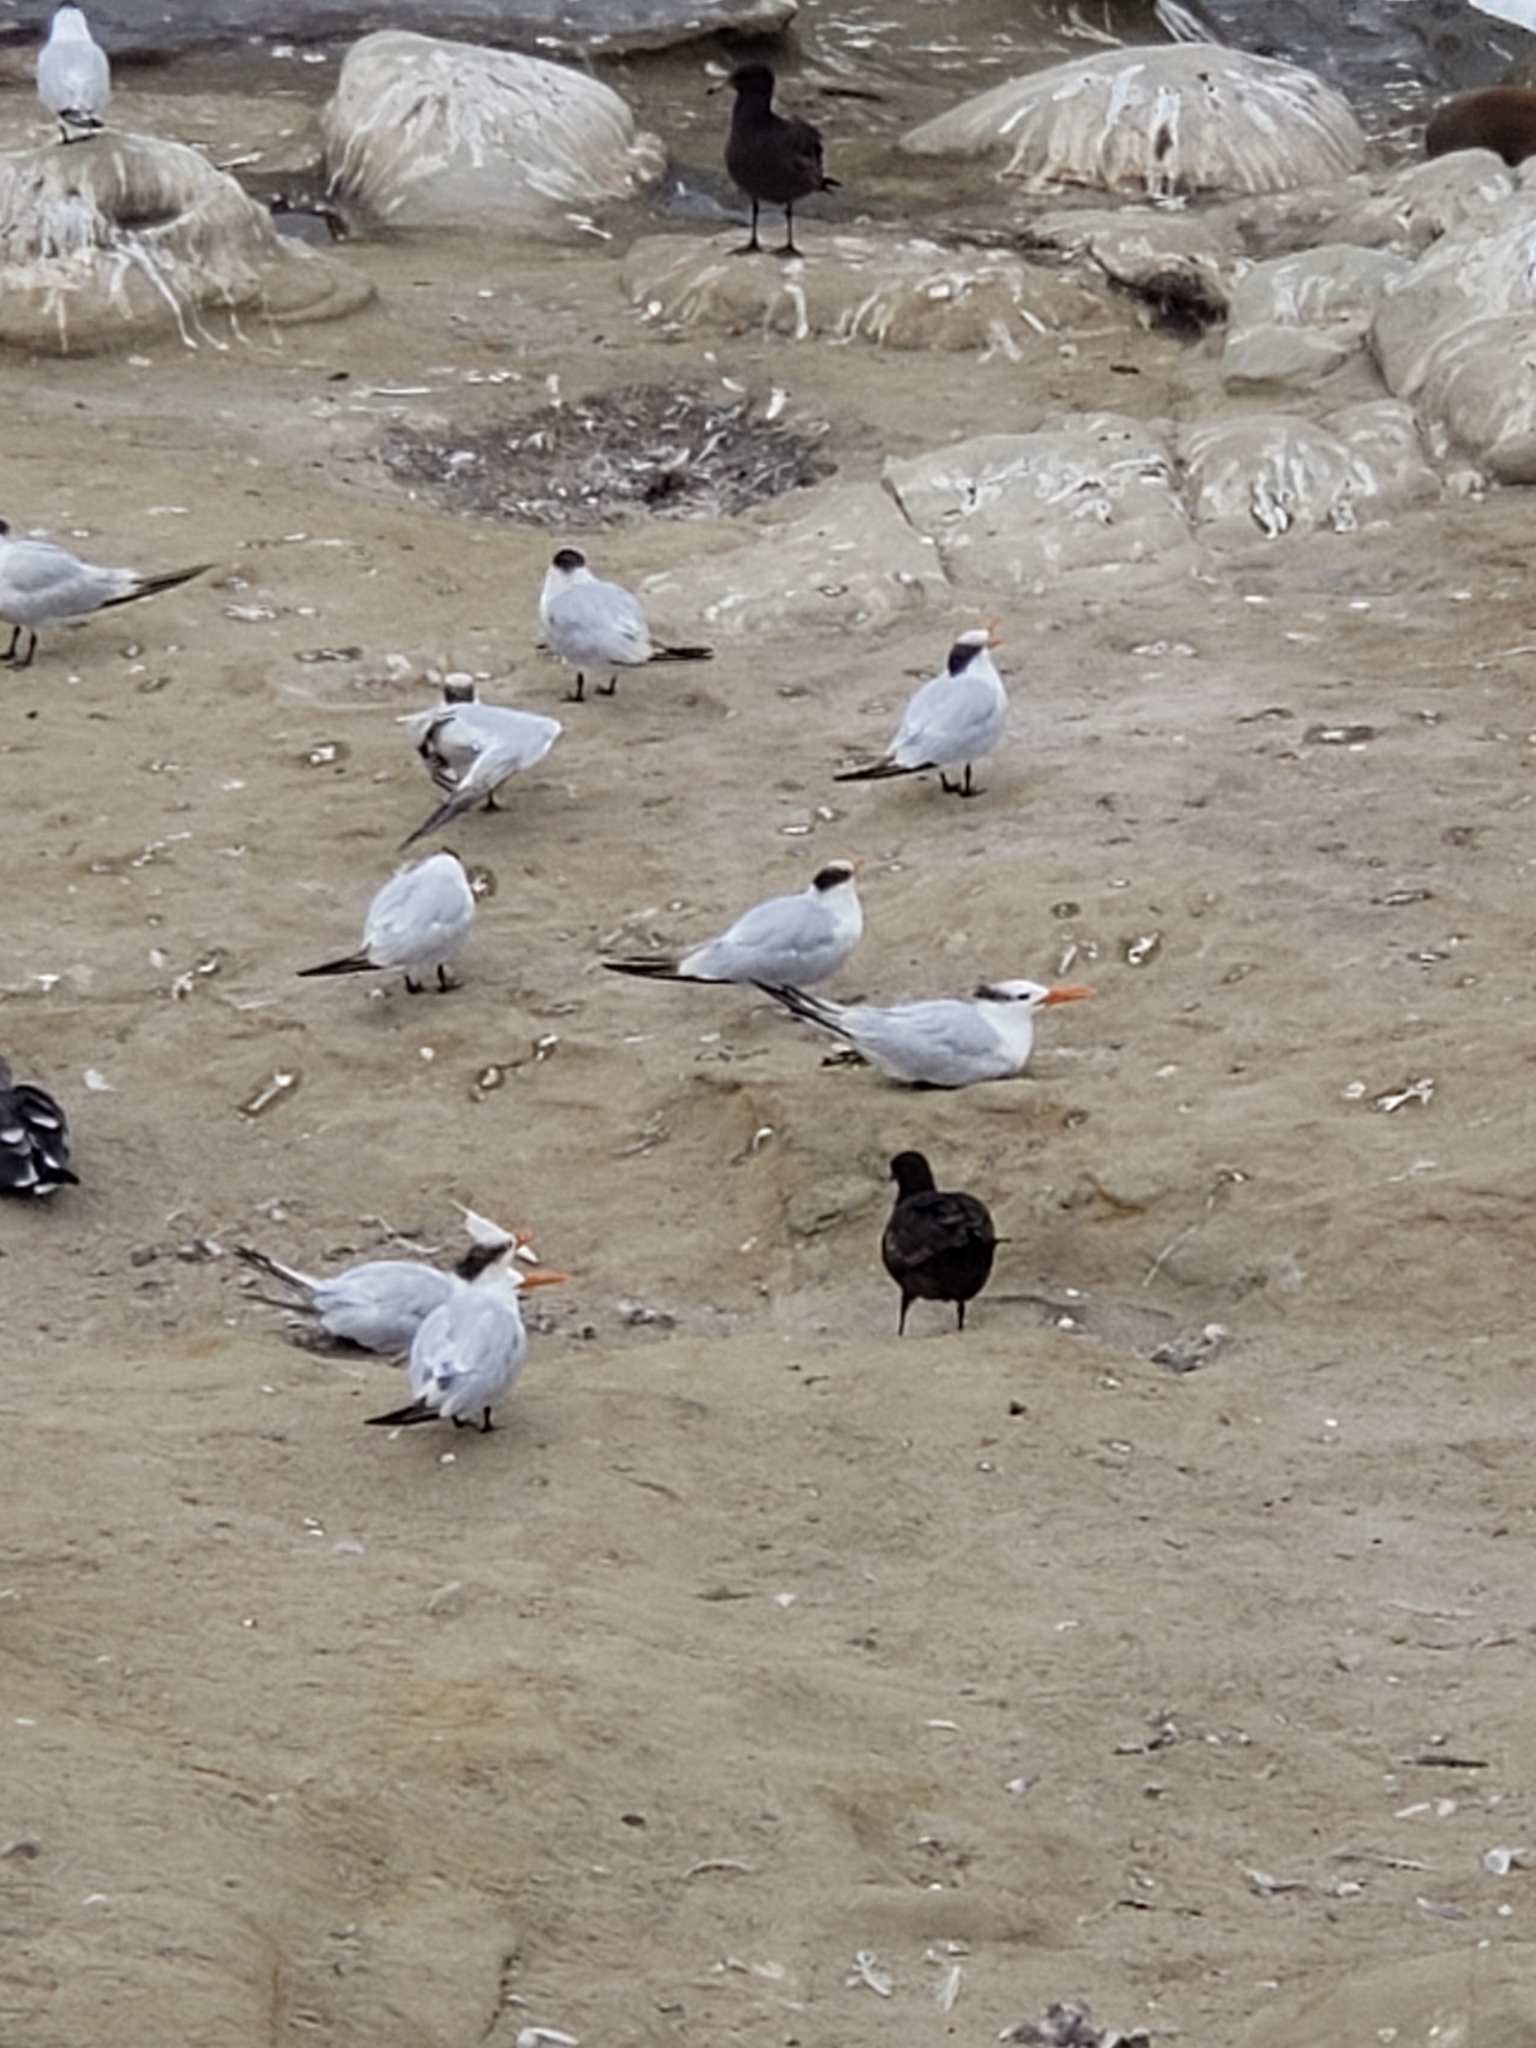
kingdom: Animalia
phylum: Chordata
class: Aves
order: Charadriiformes
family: Laridae
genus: Thalasseus
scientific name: Thalasseus maximus
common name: Royal tern
